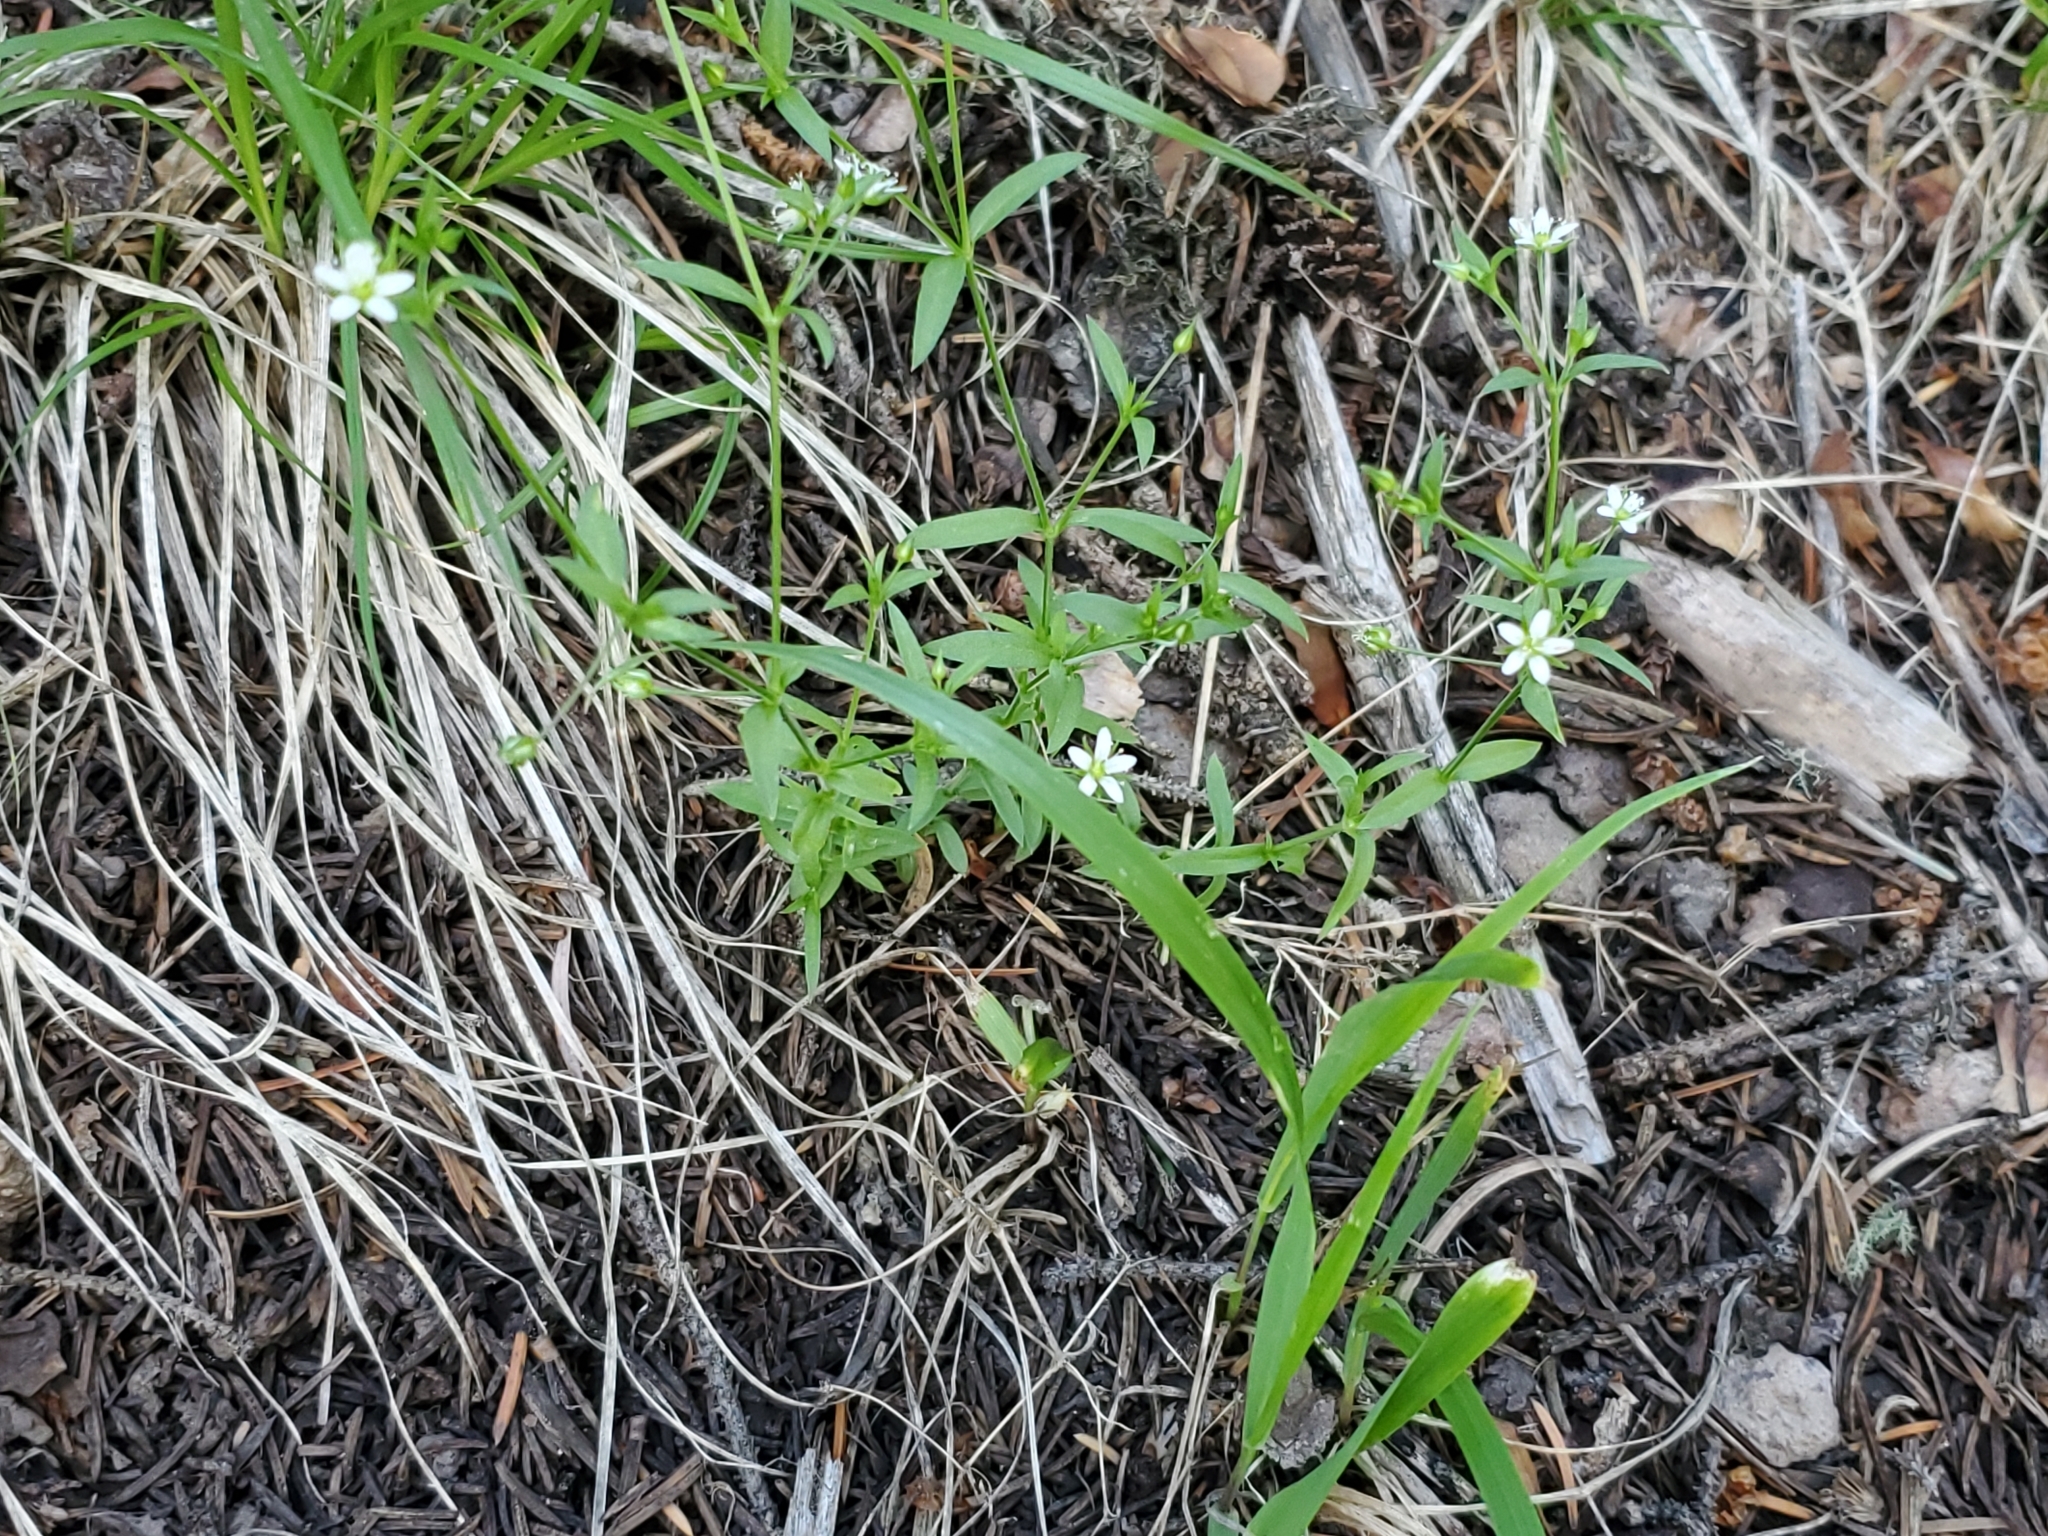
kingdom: Plantae
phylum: Tracheophyta
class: Magnoliopsida
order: Caryophyllales
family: Caryophyllaceae
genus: Arenaria
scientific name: Arenaria lanuginosa
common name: Spread sandwort
